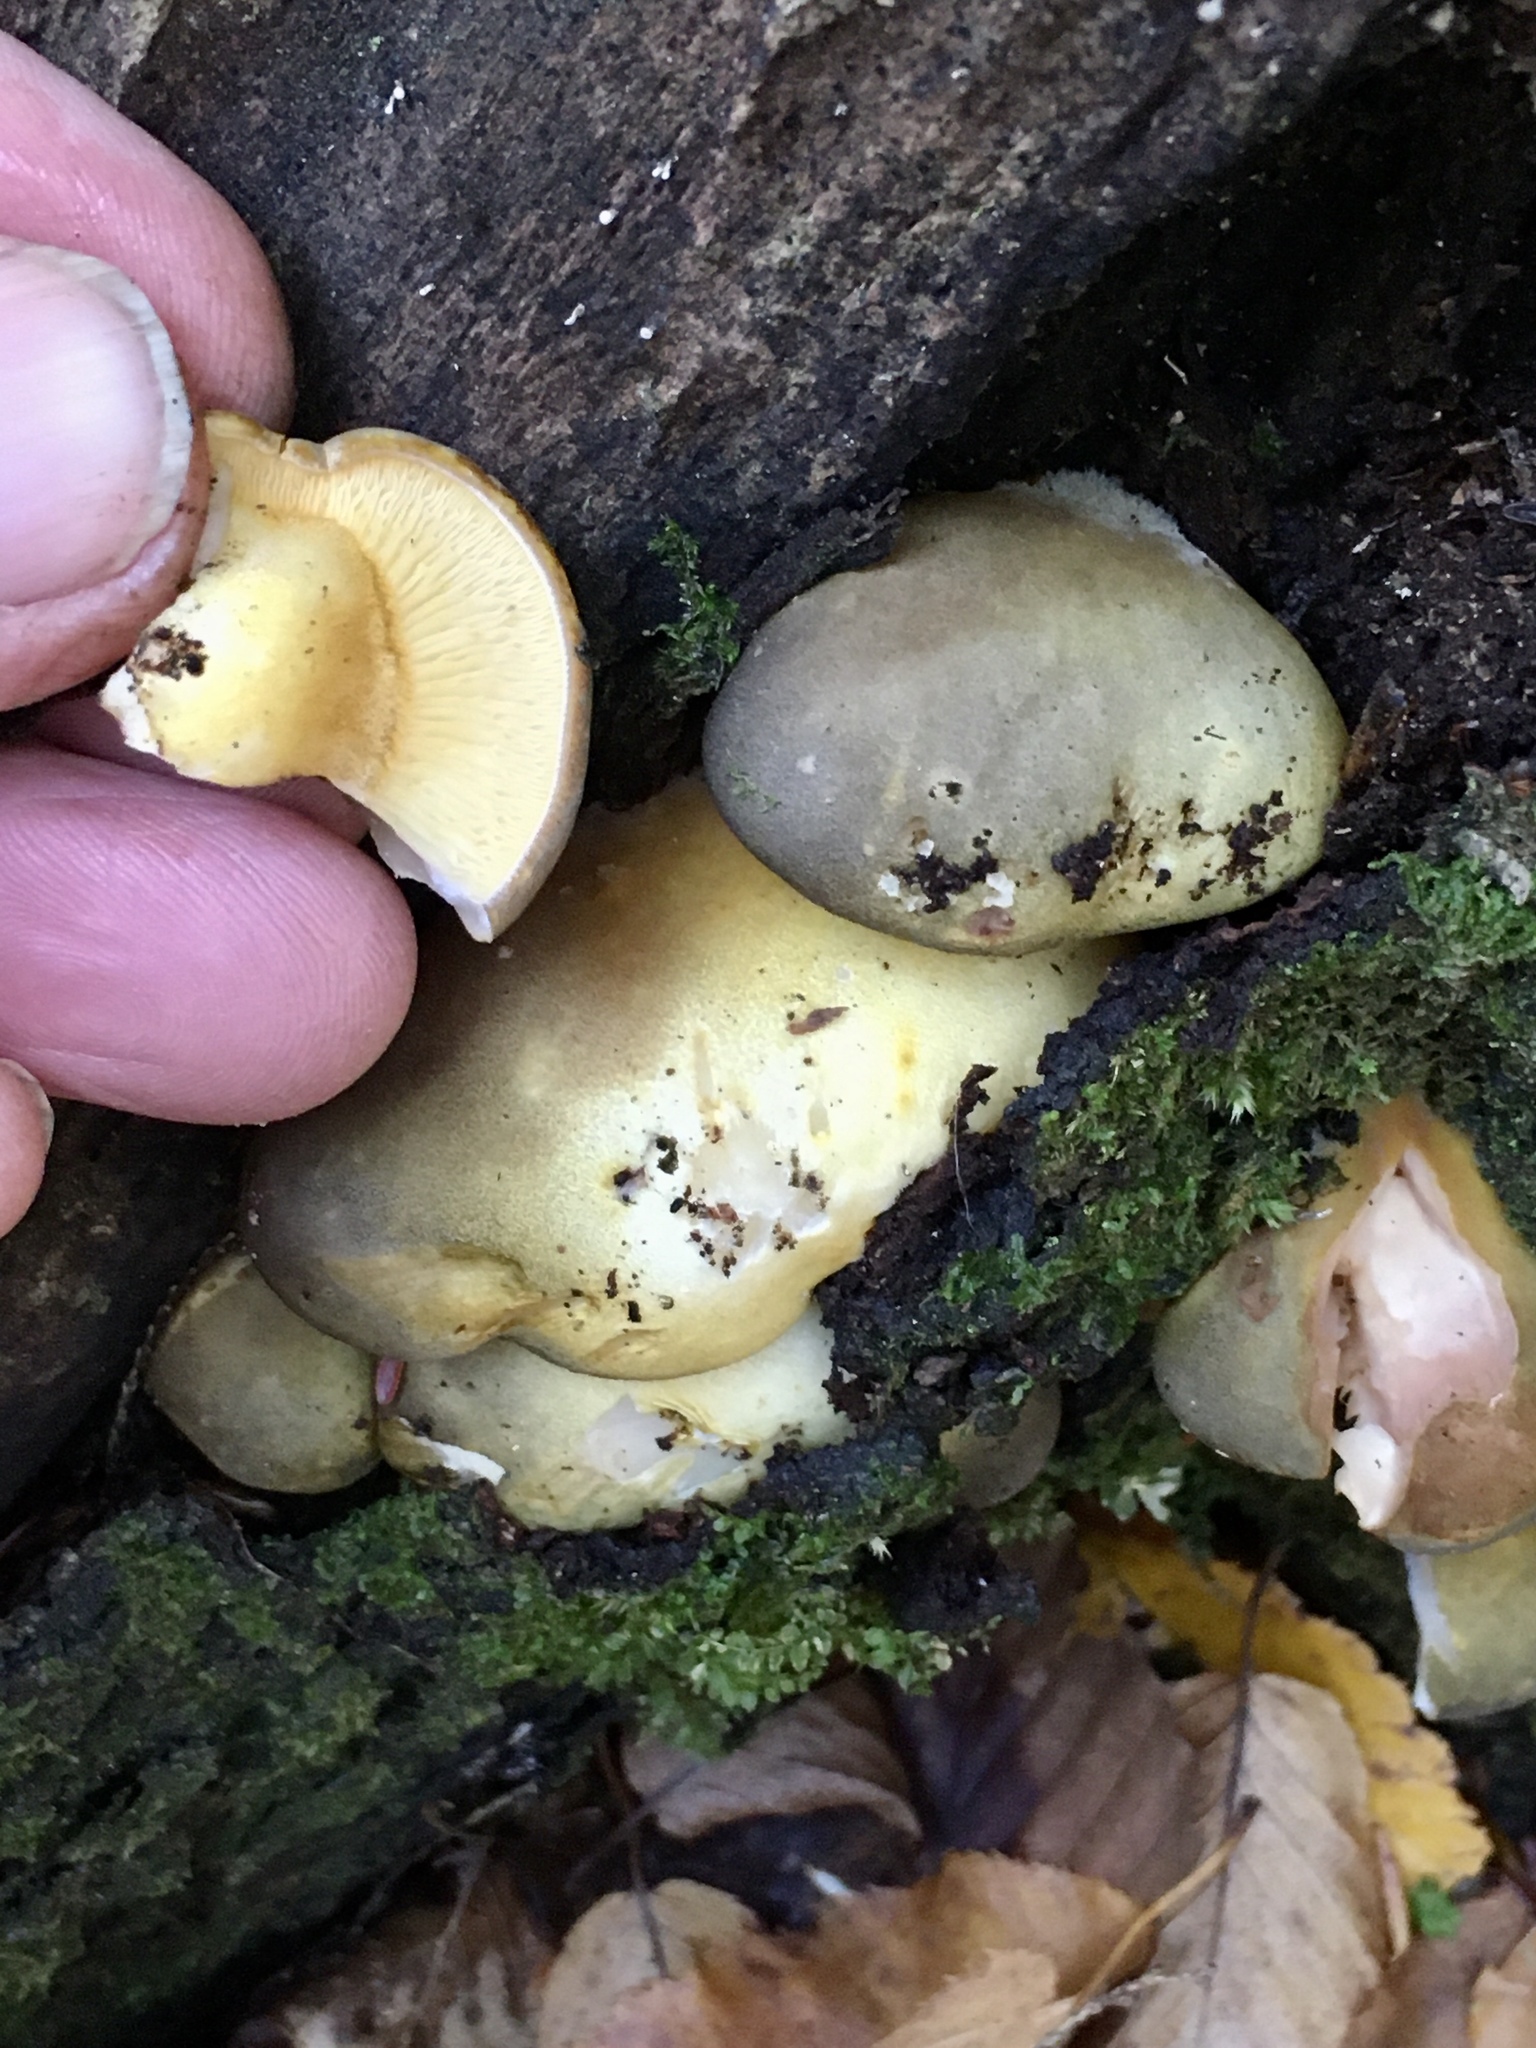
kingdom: Fungi
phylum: Basidiomycota
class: Agaricomycetes
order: Agaricales
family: Sarcomyxaceae
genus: Sarcomyxa
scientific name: Sarcomyxa serotina
